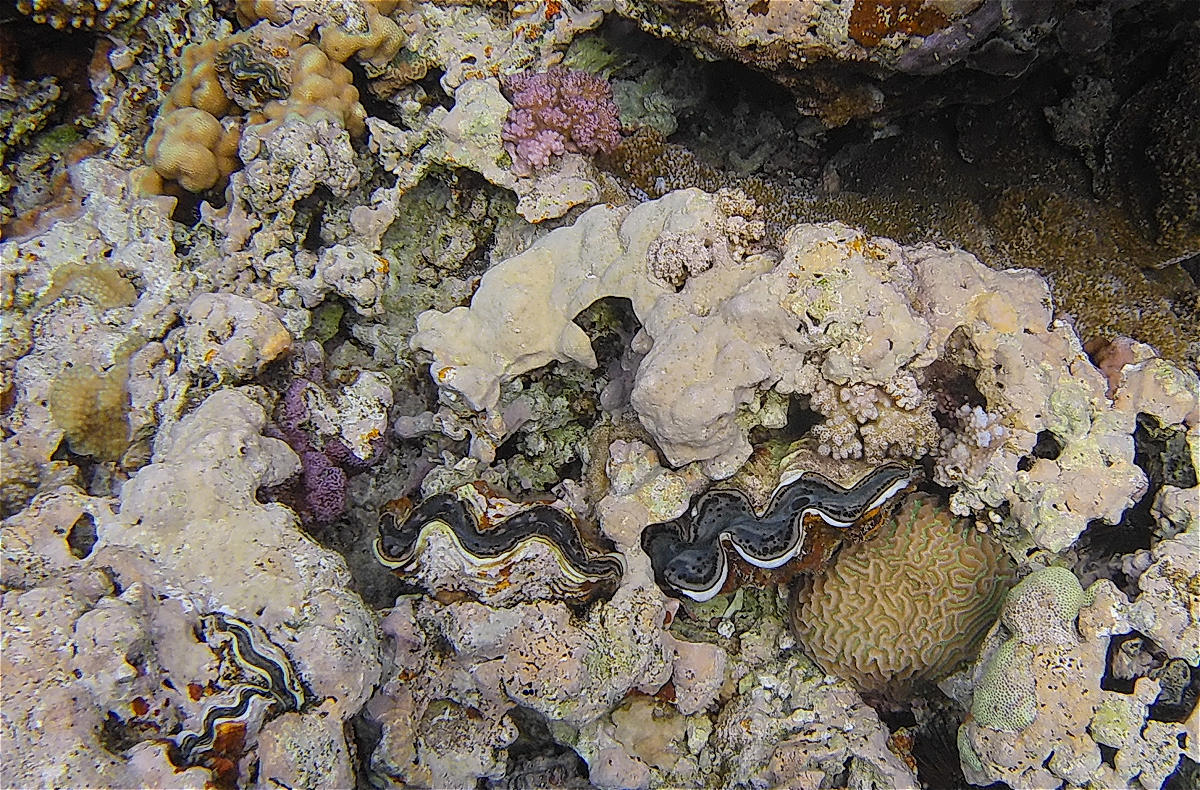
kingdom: Animalia
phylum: Mollusca
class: Bivalvia
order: Cardiida
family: Cardiidae
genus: Tridacna
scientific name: Tridacna maxima
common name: Small giant clam
